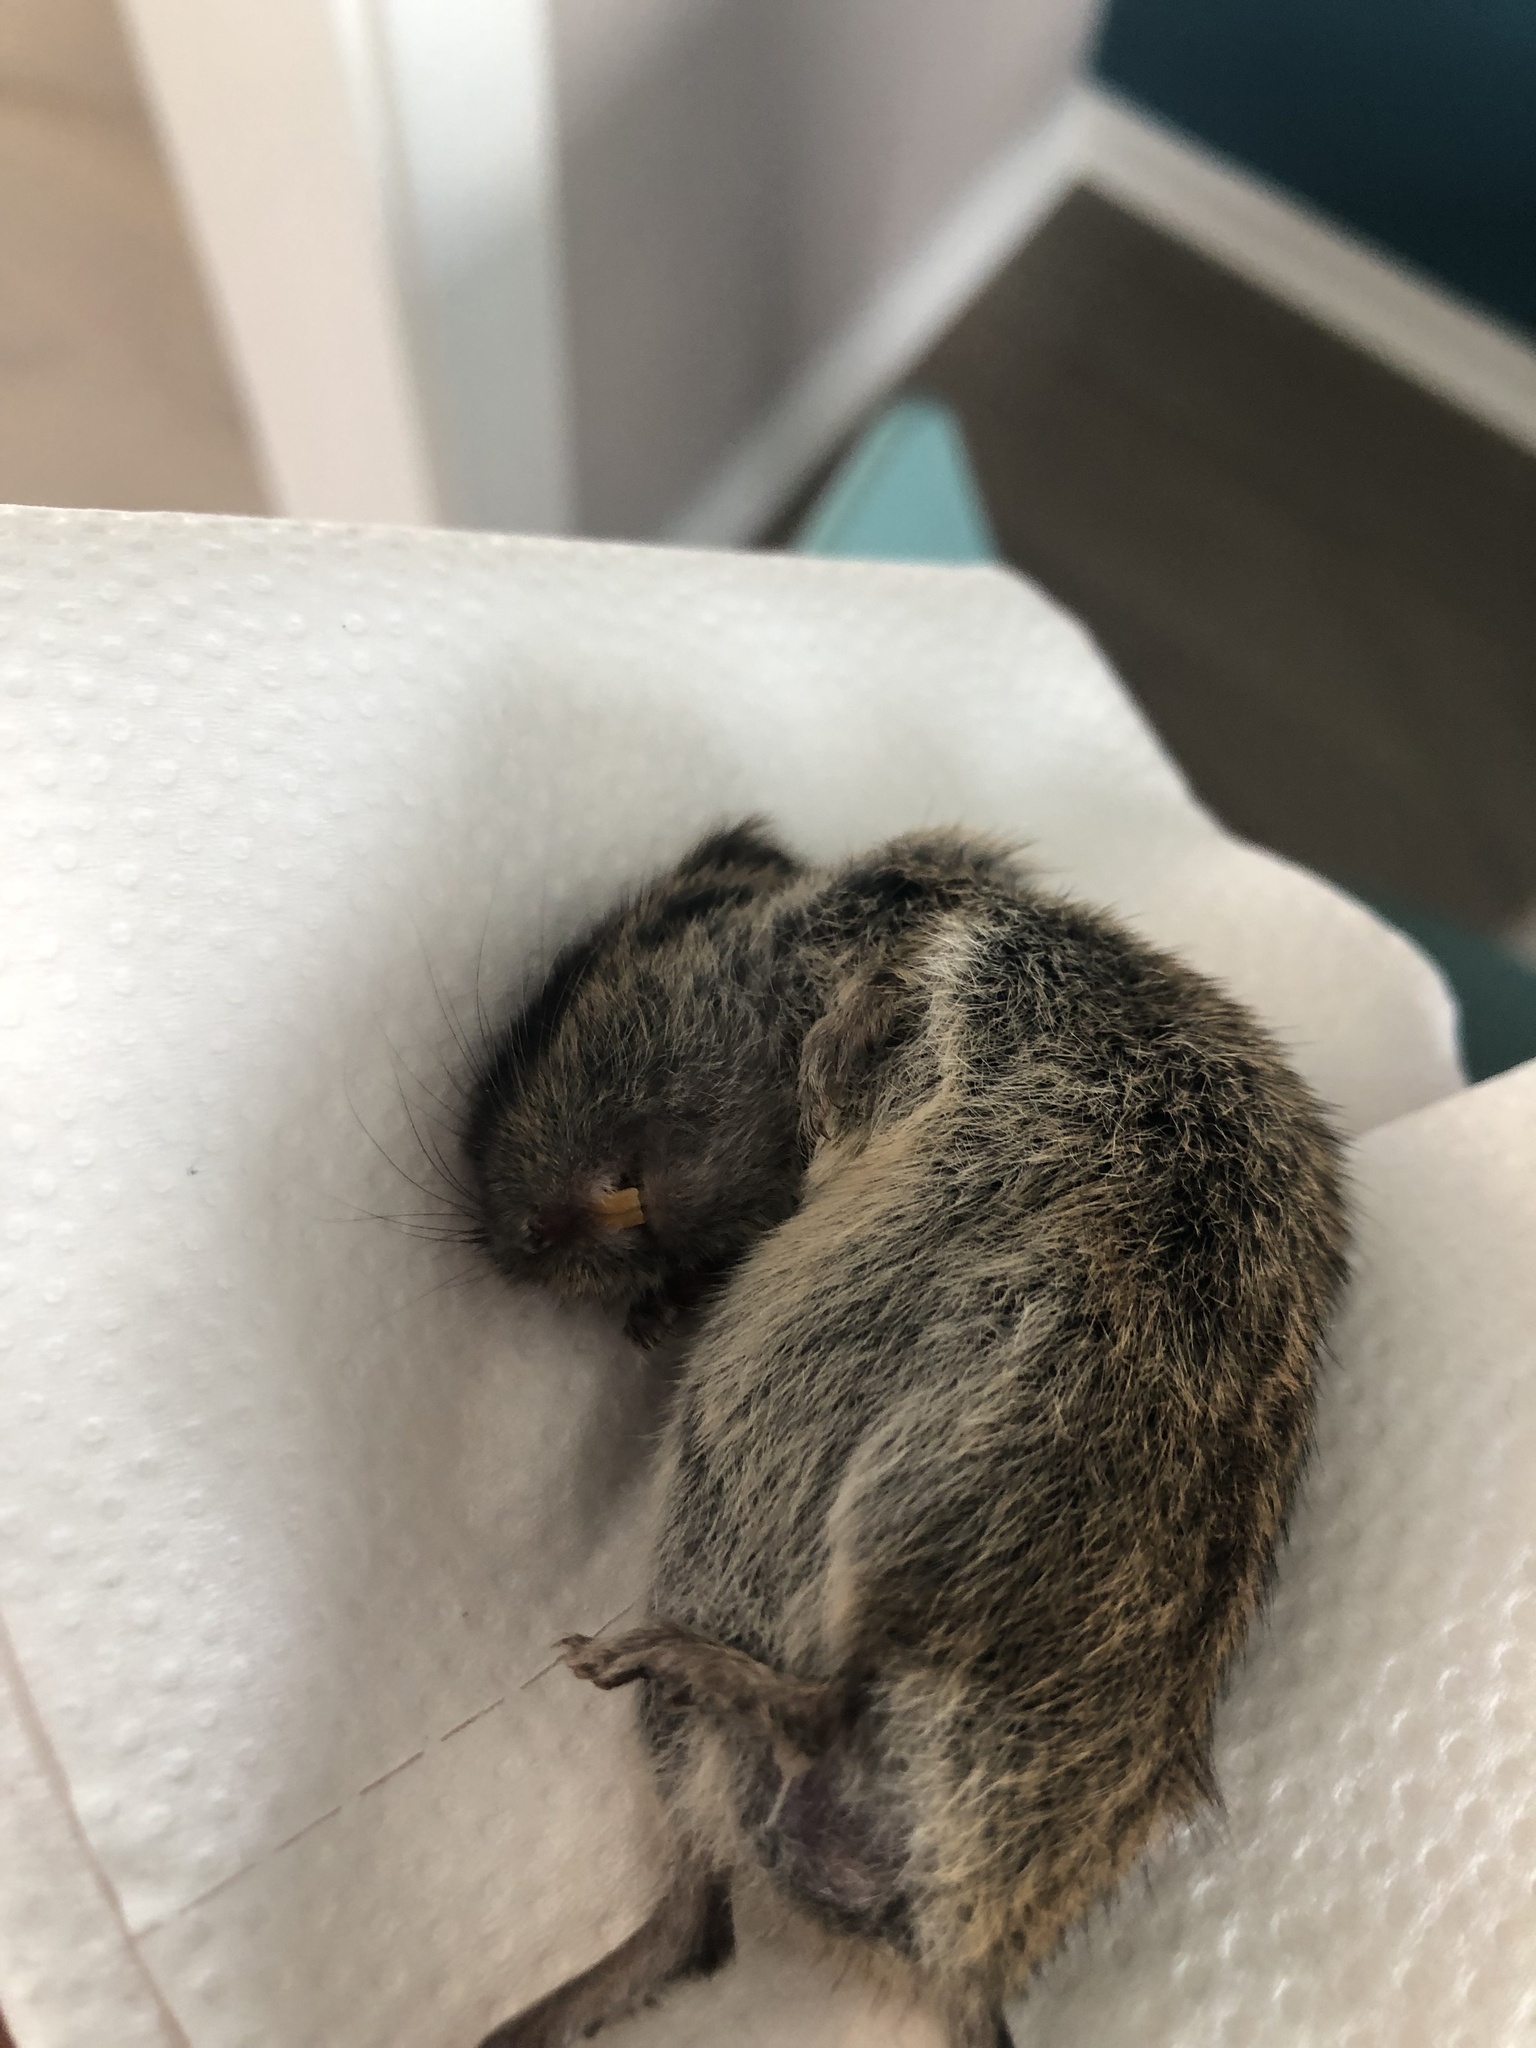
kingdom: Animalia
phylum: Chordata
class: Mammalia
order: Rodentia
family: Cricetidae
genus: Microtus
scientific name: Microtus agrestis
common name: Field vole
